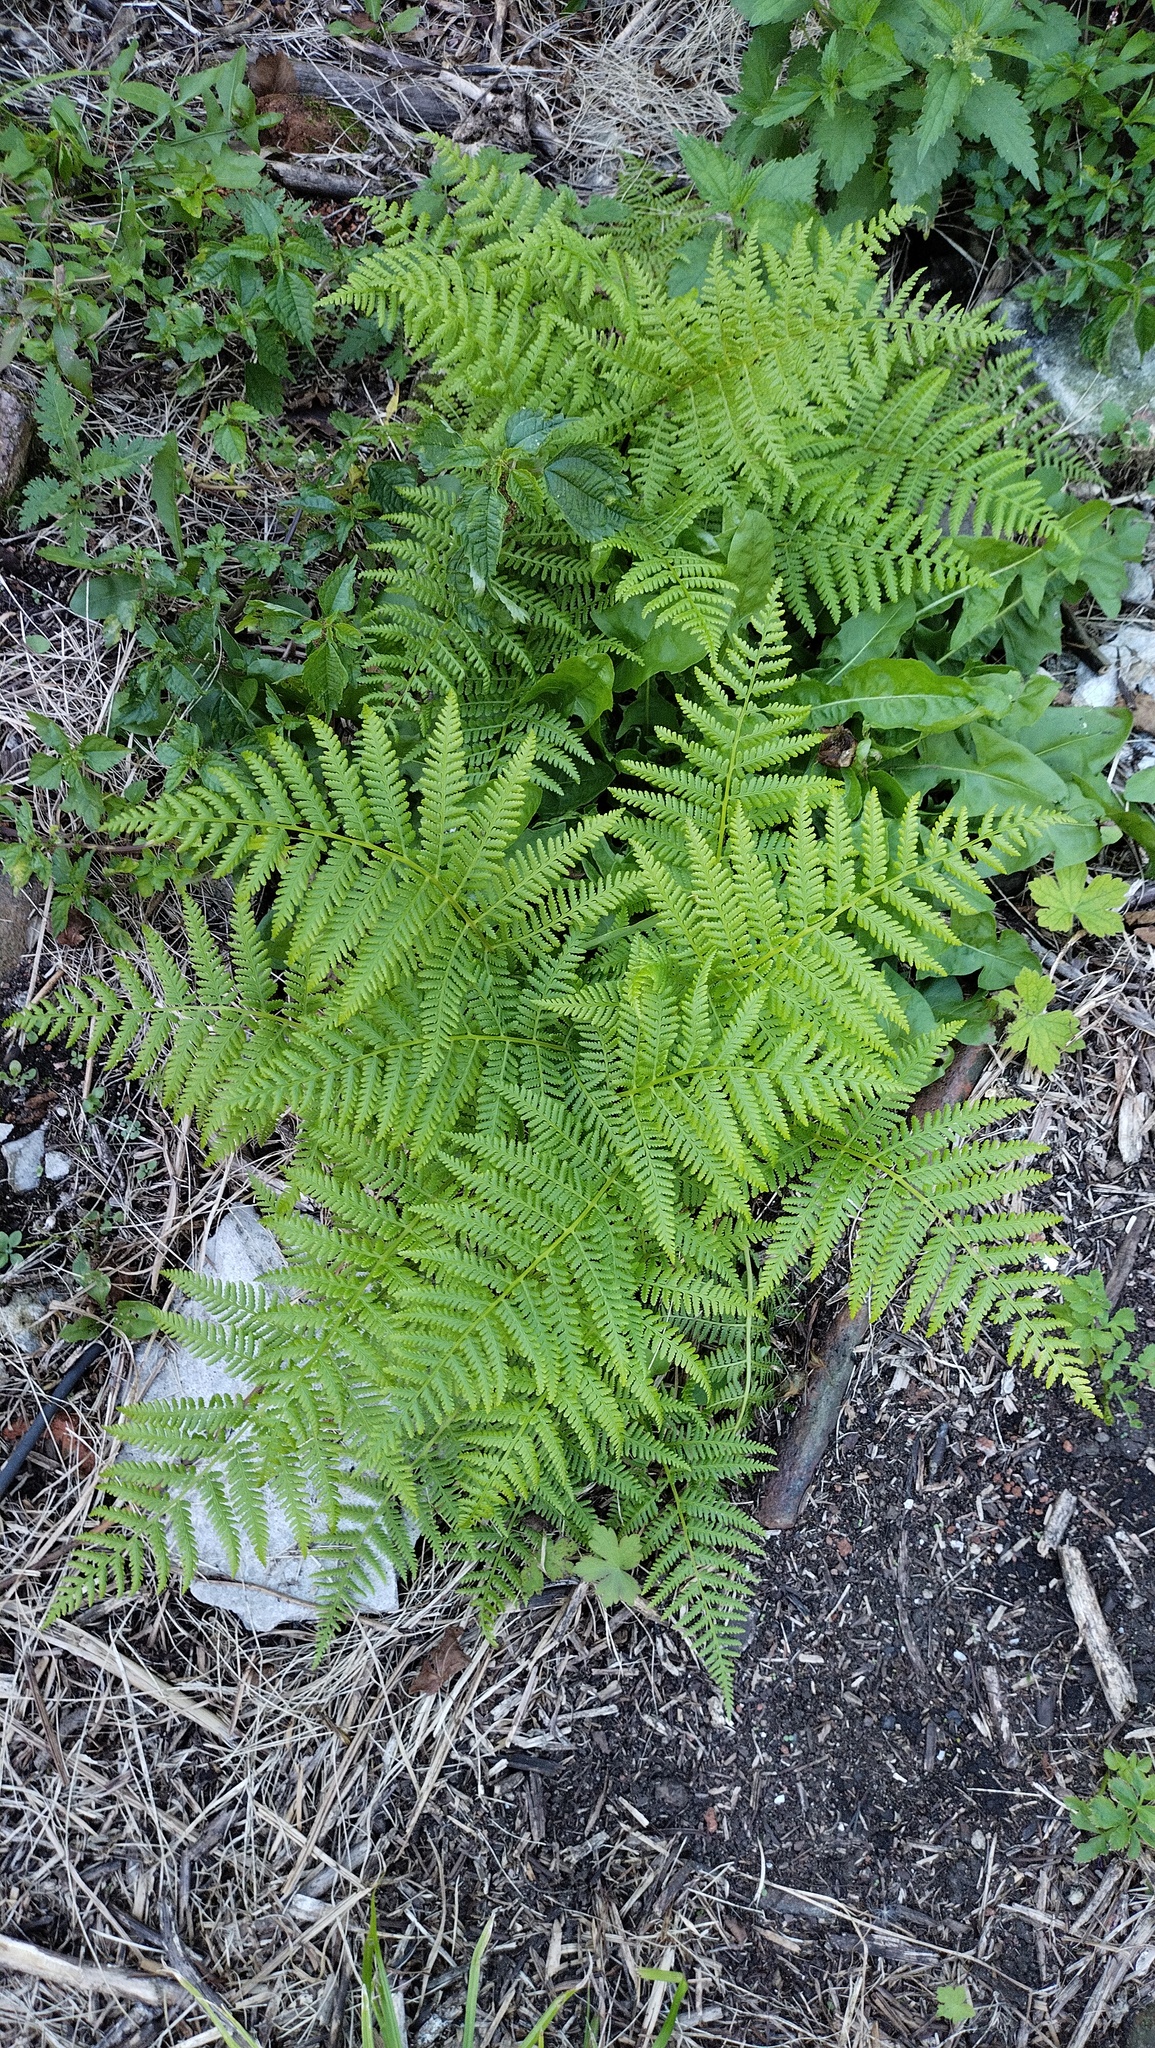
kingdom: Plantae
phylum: Tracheophyta
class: Polypodiopsida
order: Polypodiales
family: Athyriaceae
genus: Athyrium
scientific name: Athyrium filix-femina
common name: Lady fern
